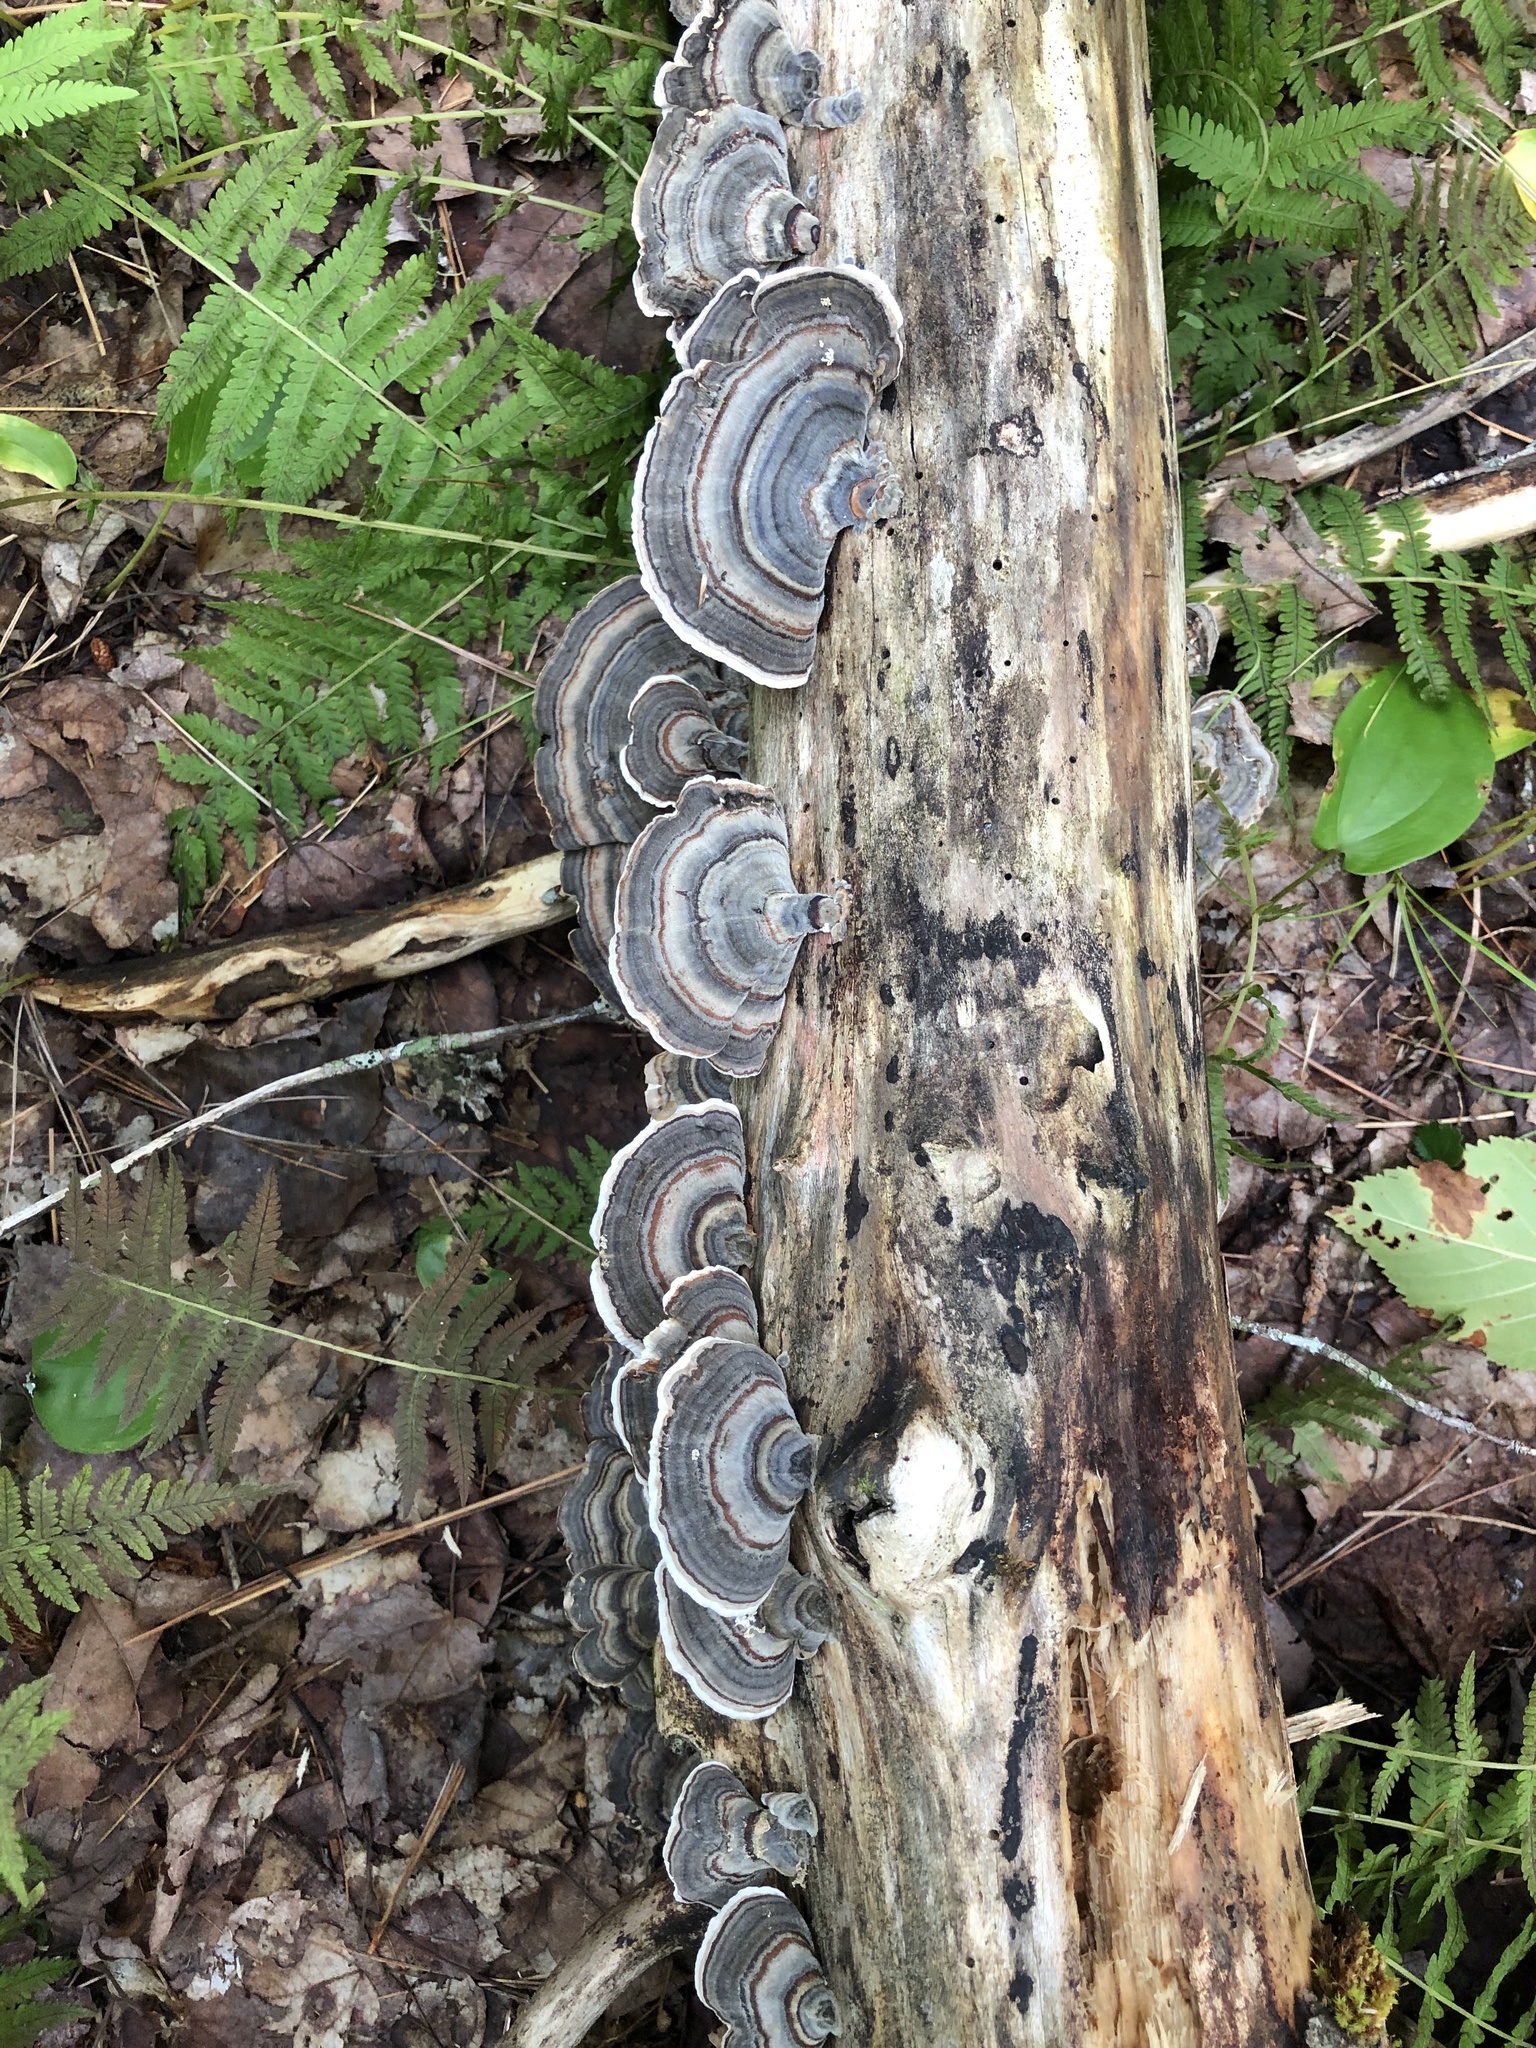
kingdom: Fungi
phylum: Basidiomycota
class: Agaricomycetes
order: Polyporales
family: Polyporaceae
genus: Trametes
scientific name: Trametes versicolor
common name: Turkeytail
